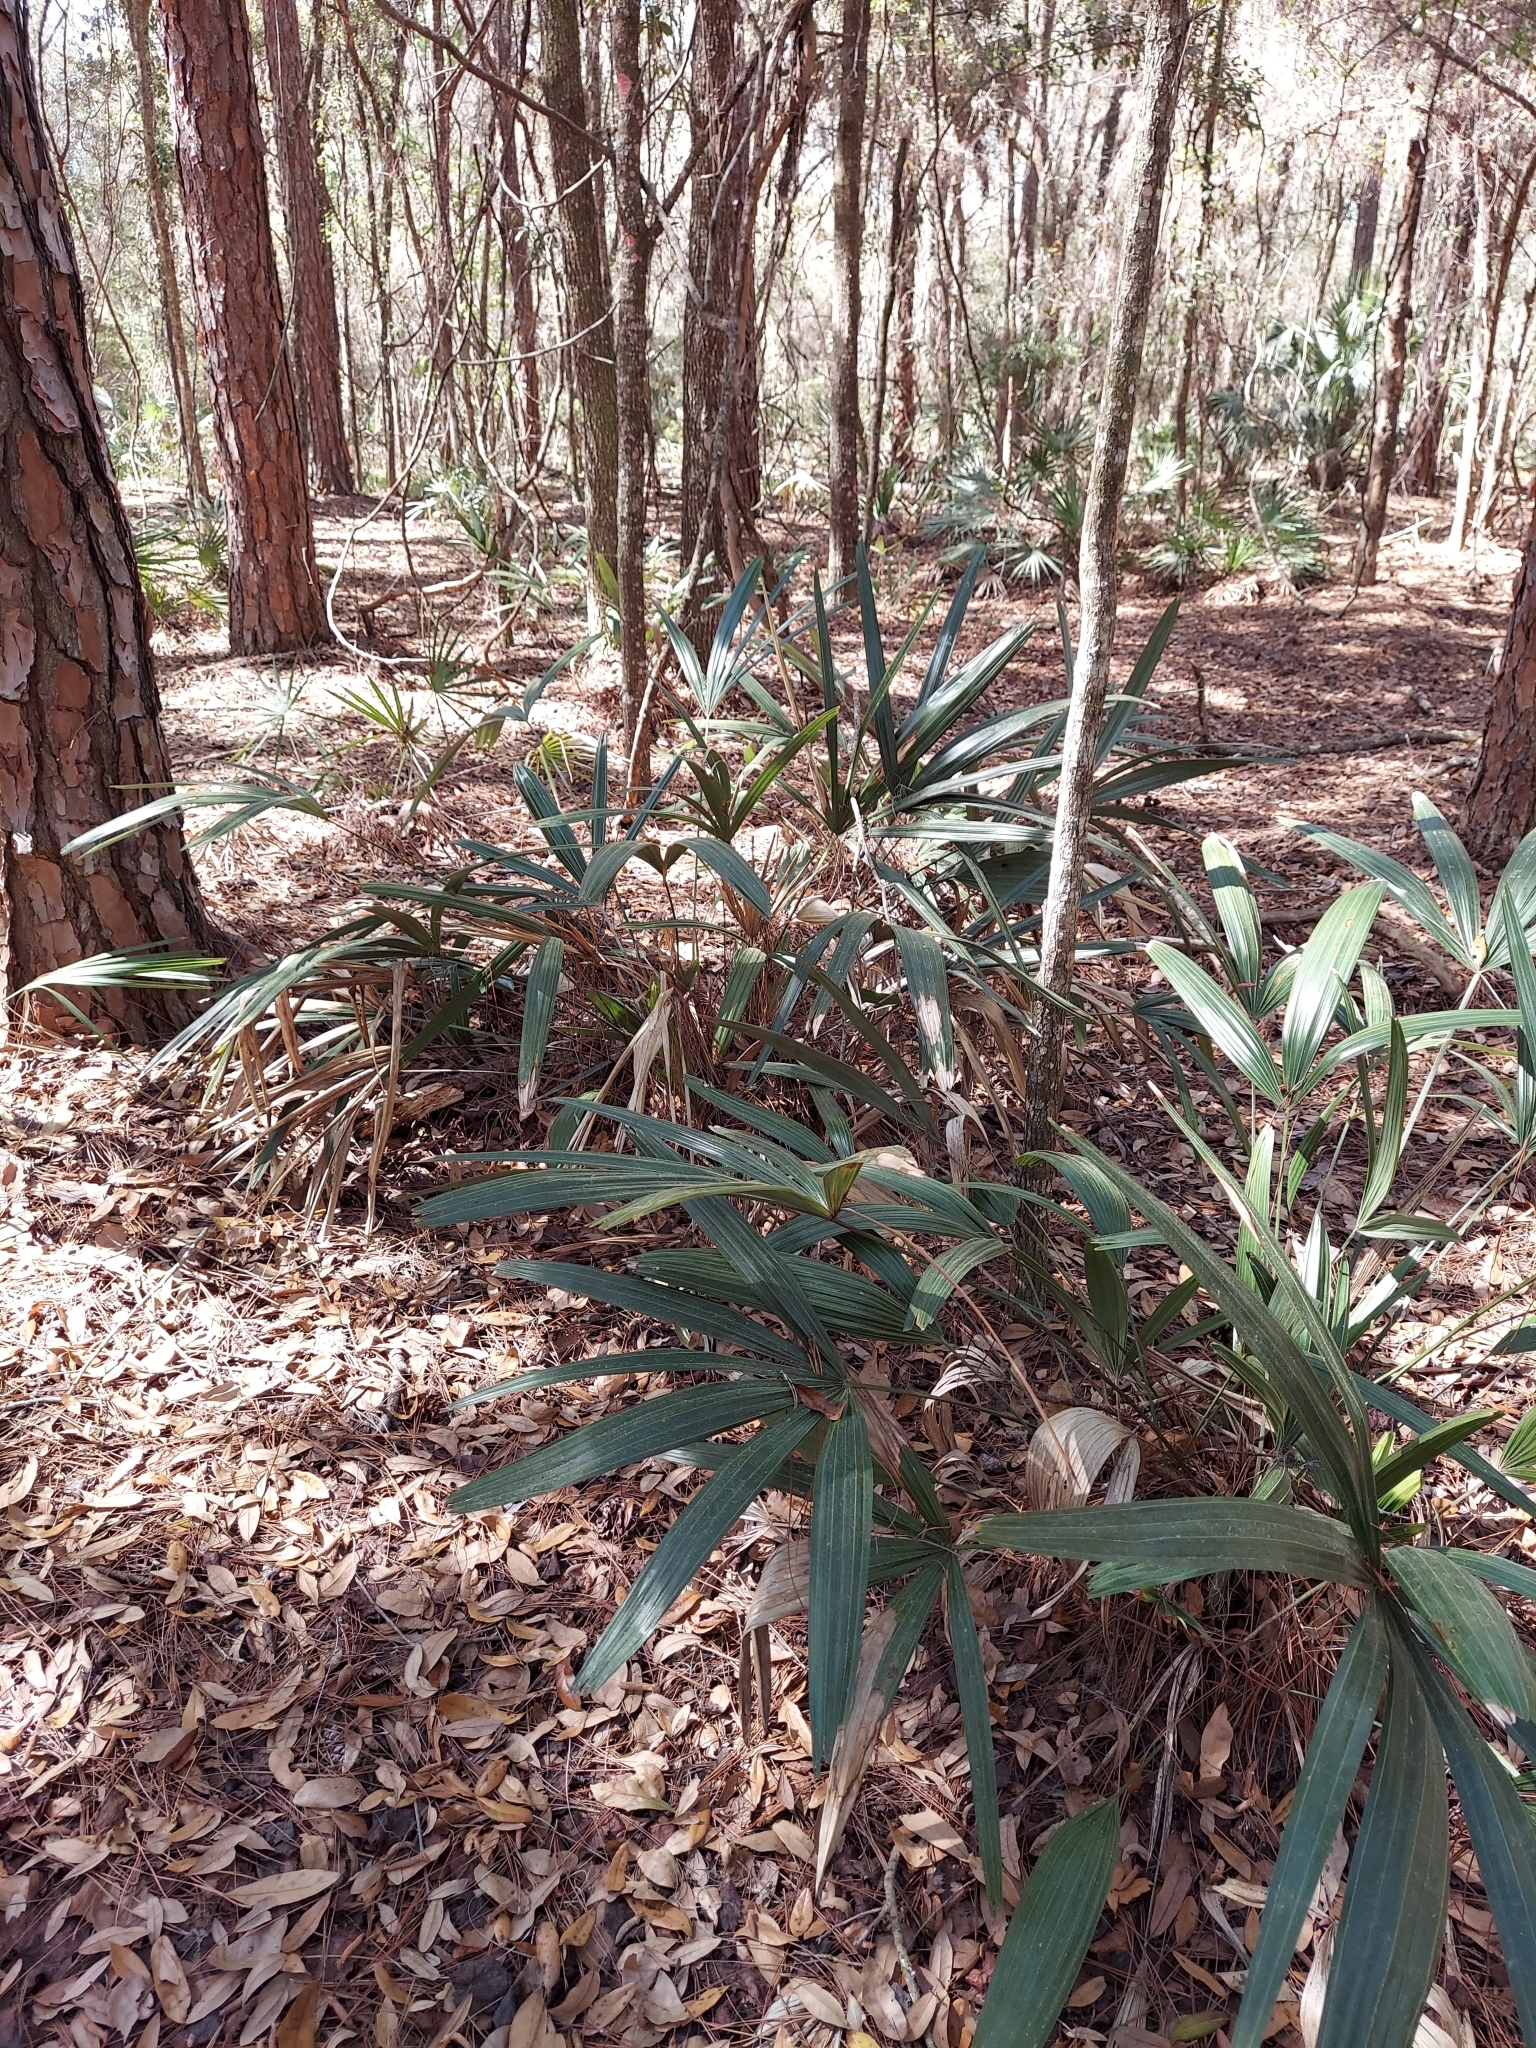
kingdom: Plantae
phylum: Tracheophyta
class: Liliopsida
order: Arecales
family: Arecaceae
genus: Rhapidophyllum
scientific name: Rhapidophyllum hystrix
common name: Porcupine palm
